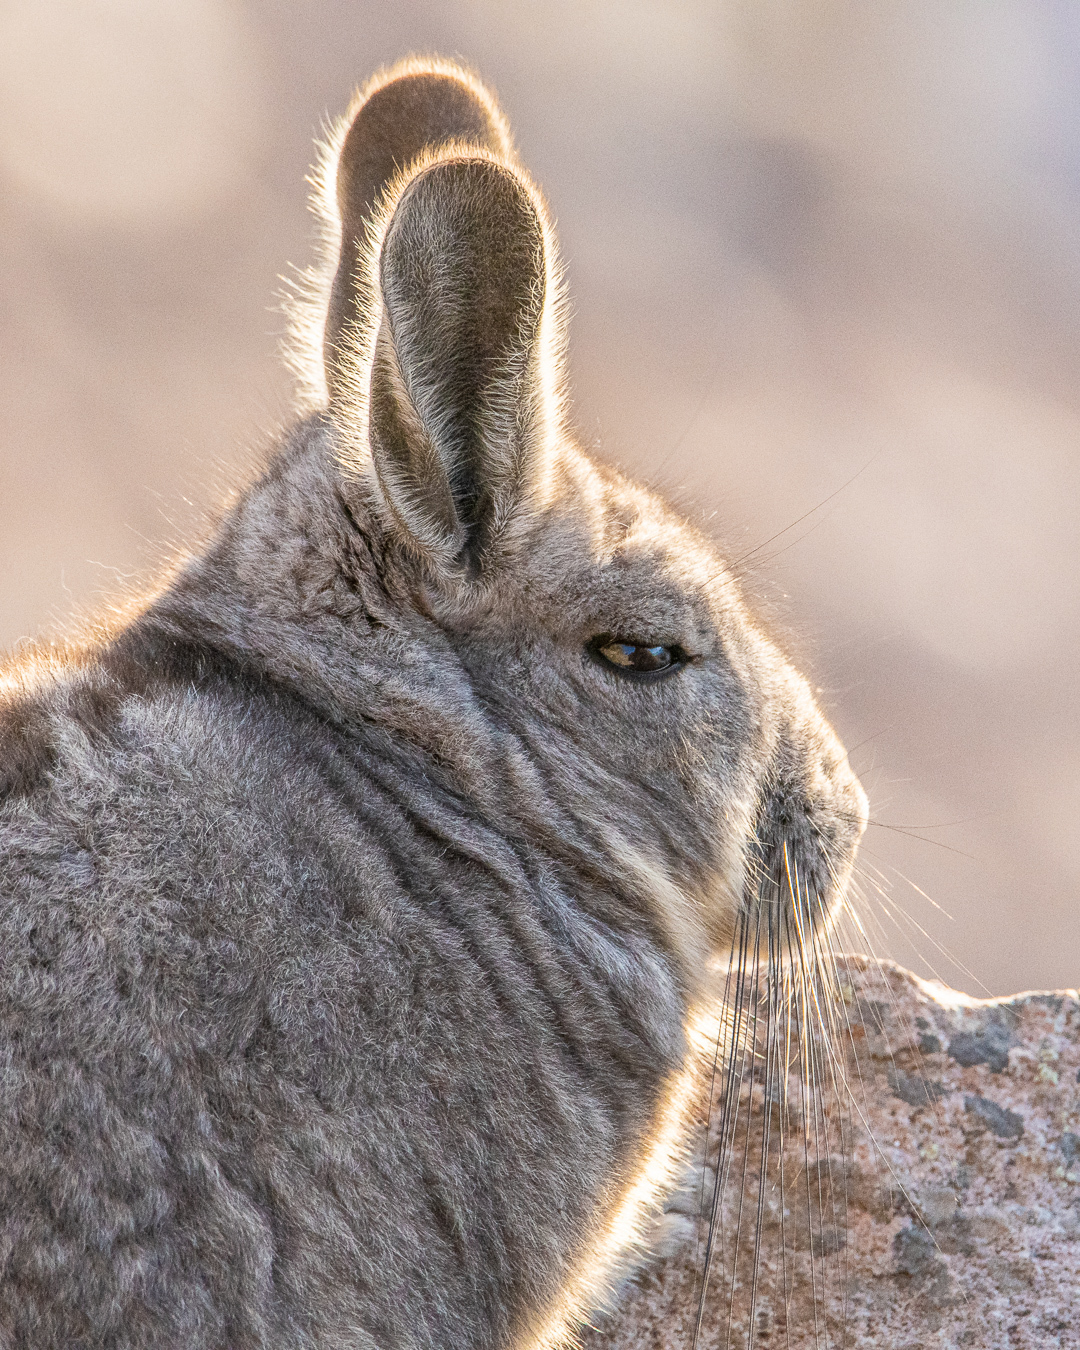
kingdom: Animalia
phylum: Chordata
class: Mammalia
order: Rodentia
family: Chinchillidae
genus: Lagidium
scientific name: Lagidium viscacia
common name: Southern viscacha
